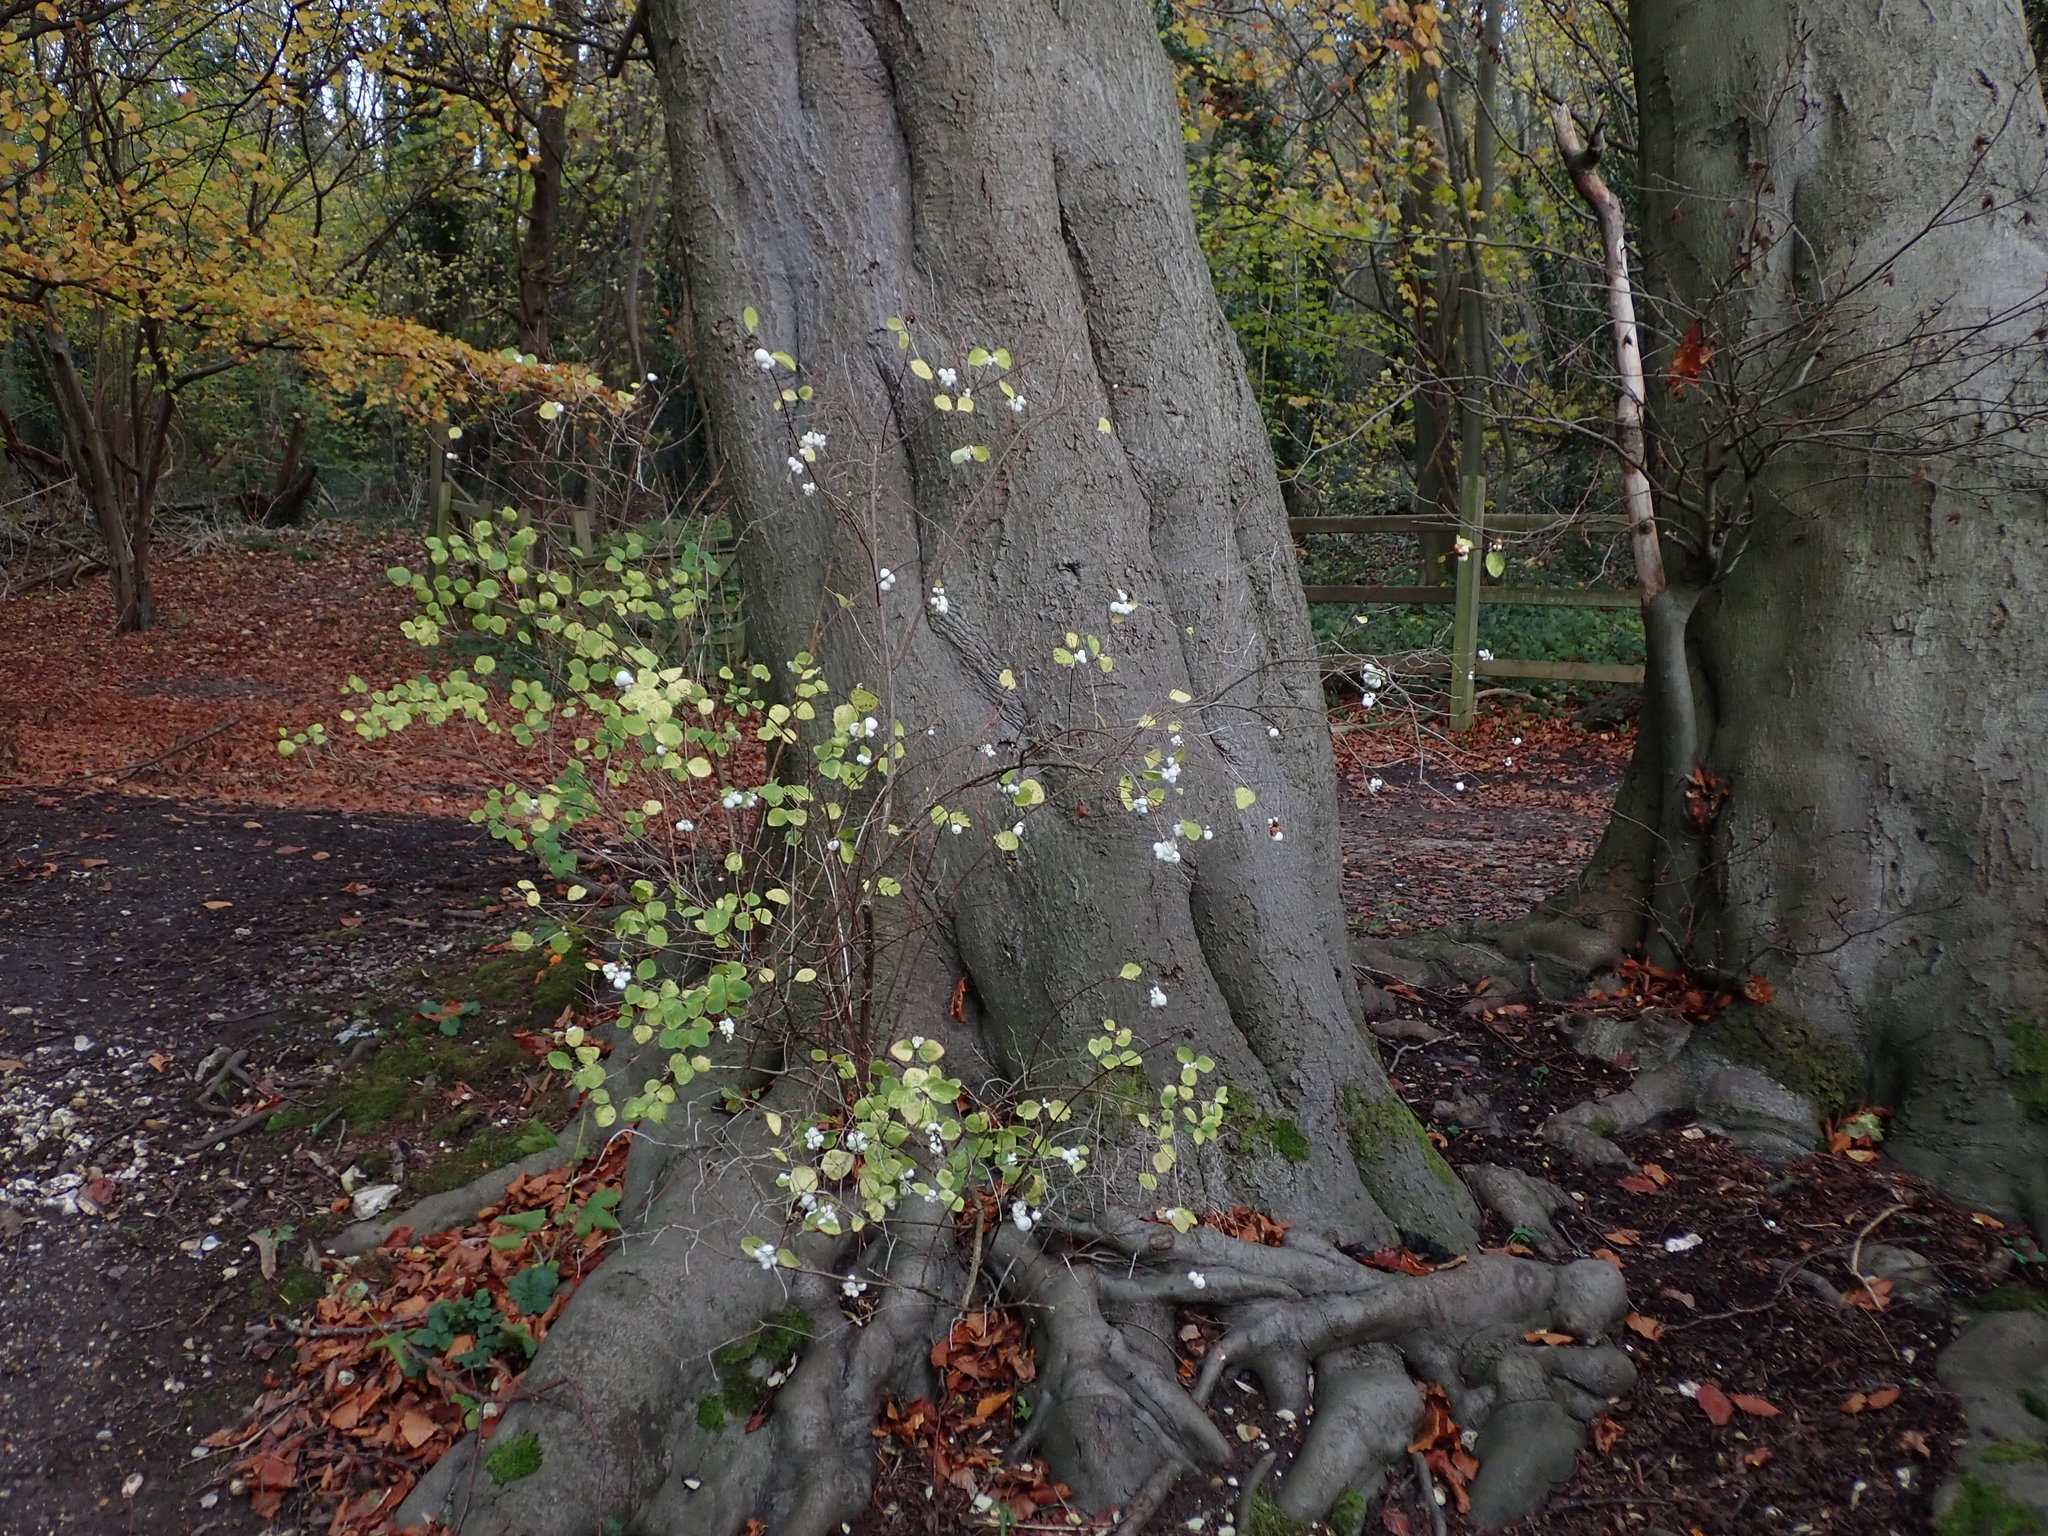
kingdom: Plantae
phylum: Tracheophyta
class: Magnoliopsida
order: Dipsacales
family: Caprifoliaceae
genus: Symphoricarpos
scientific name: Symphoricarpos albus
